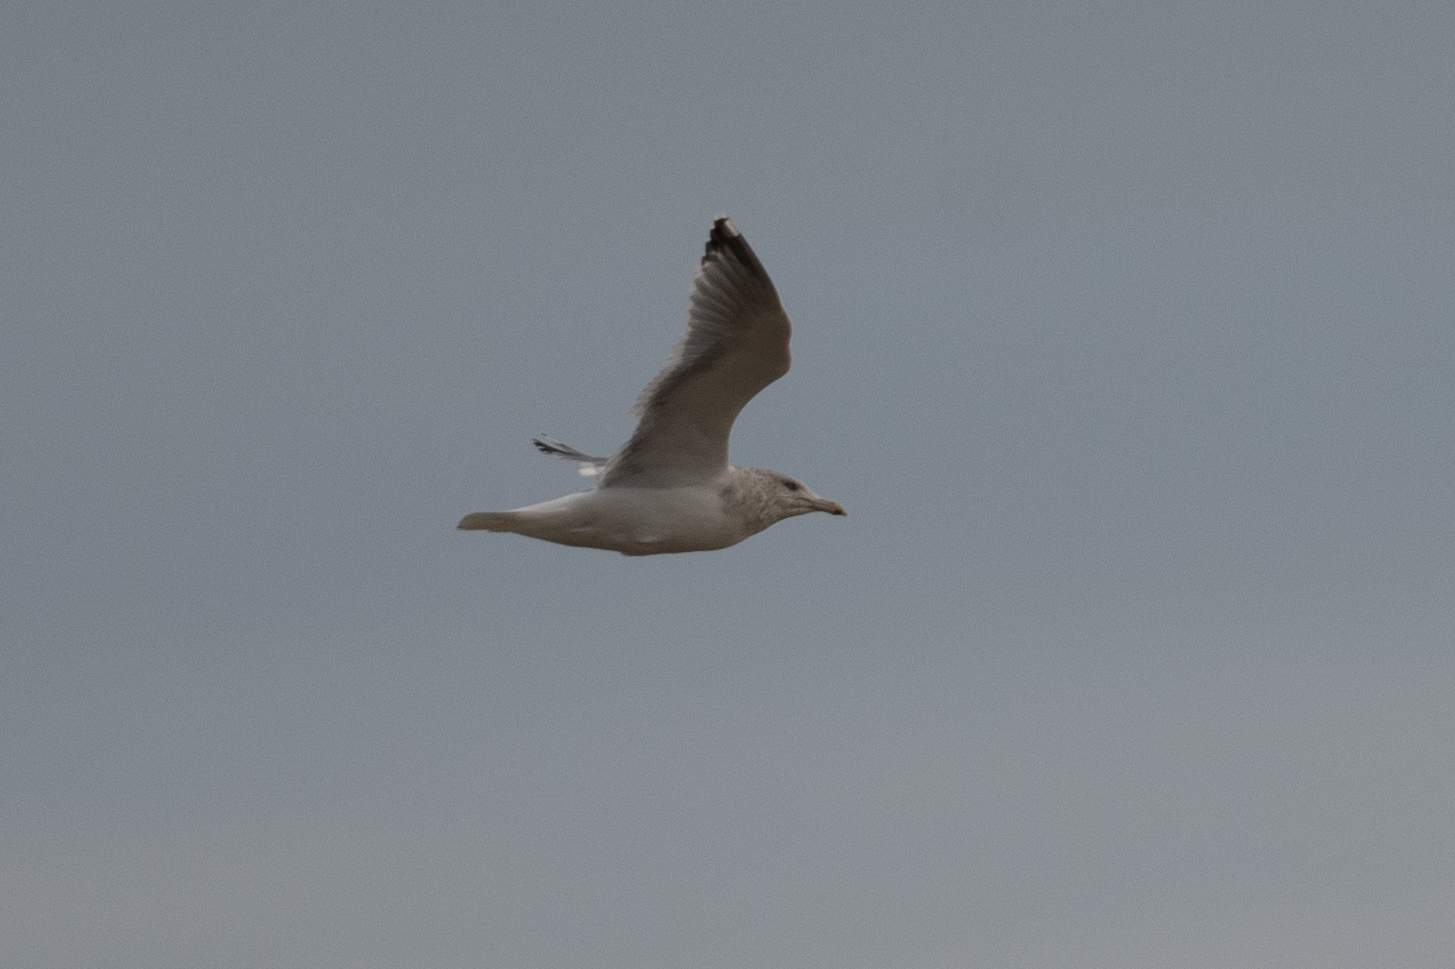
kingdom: Animalia
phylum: Chordata
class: Aves
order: Charadriiformes
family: Laridae
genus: Larus
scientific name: Larus argentatus
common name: Herring gull
